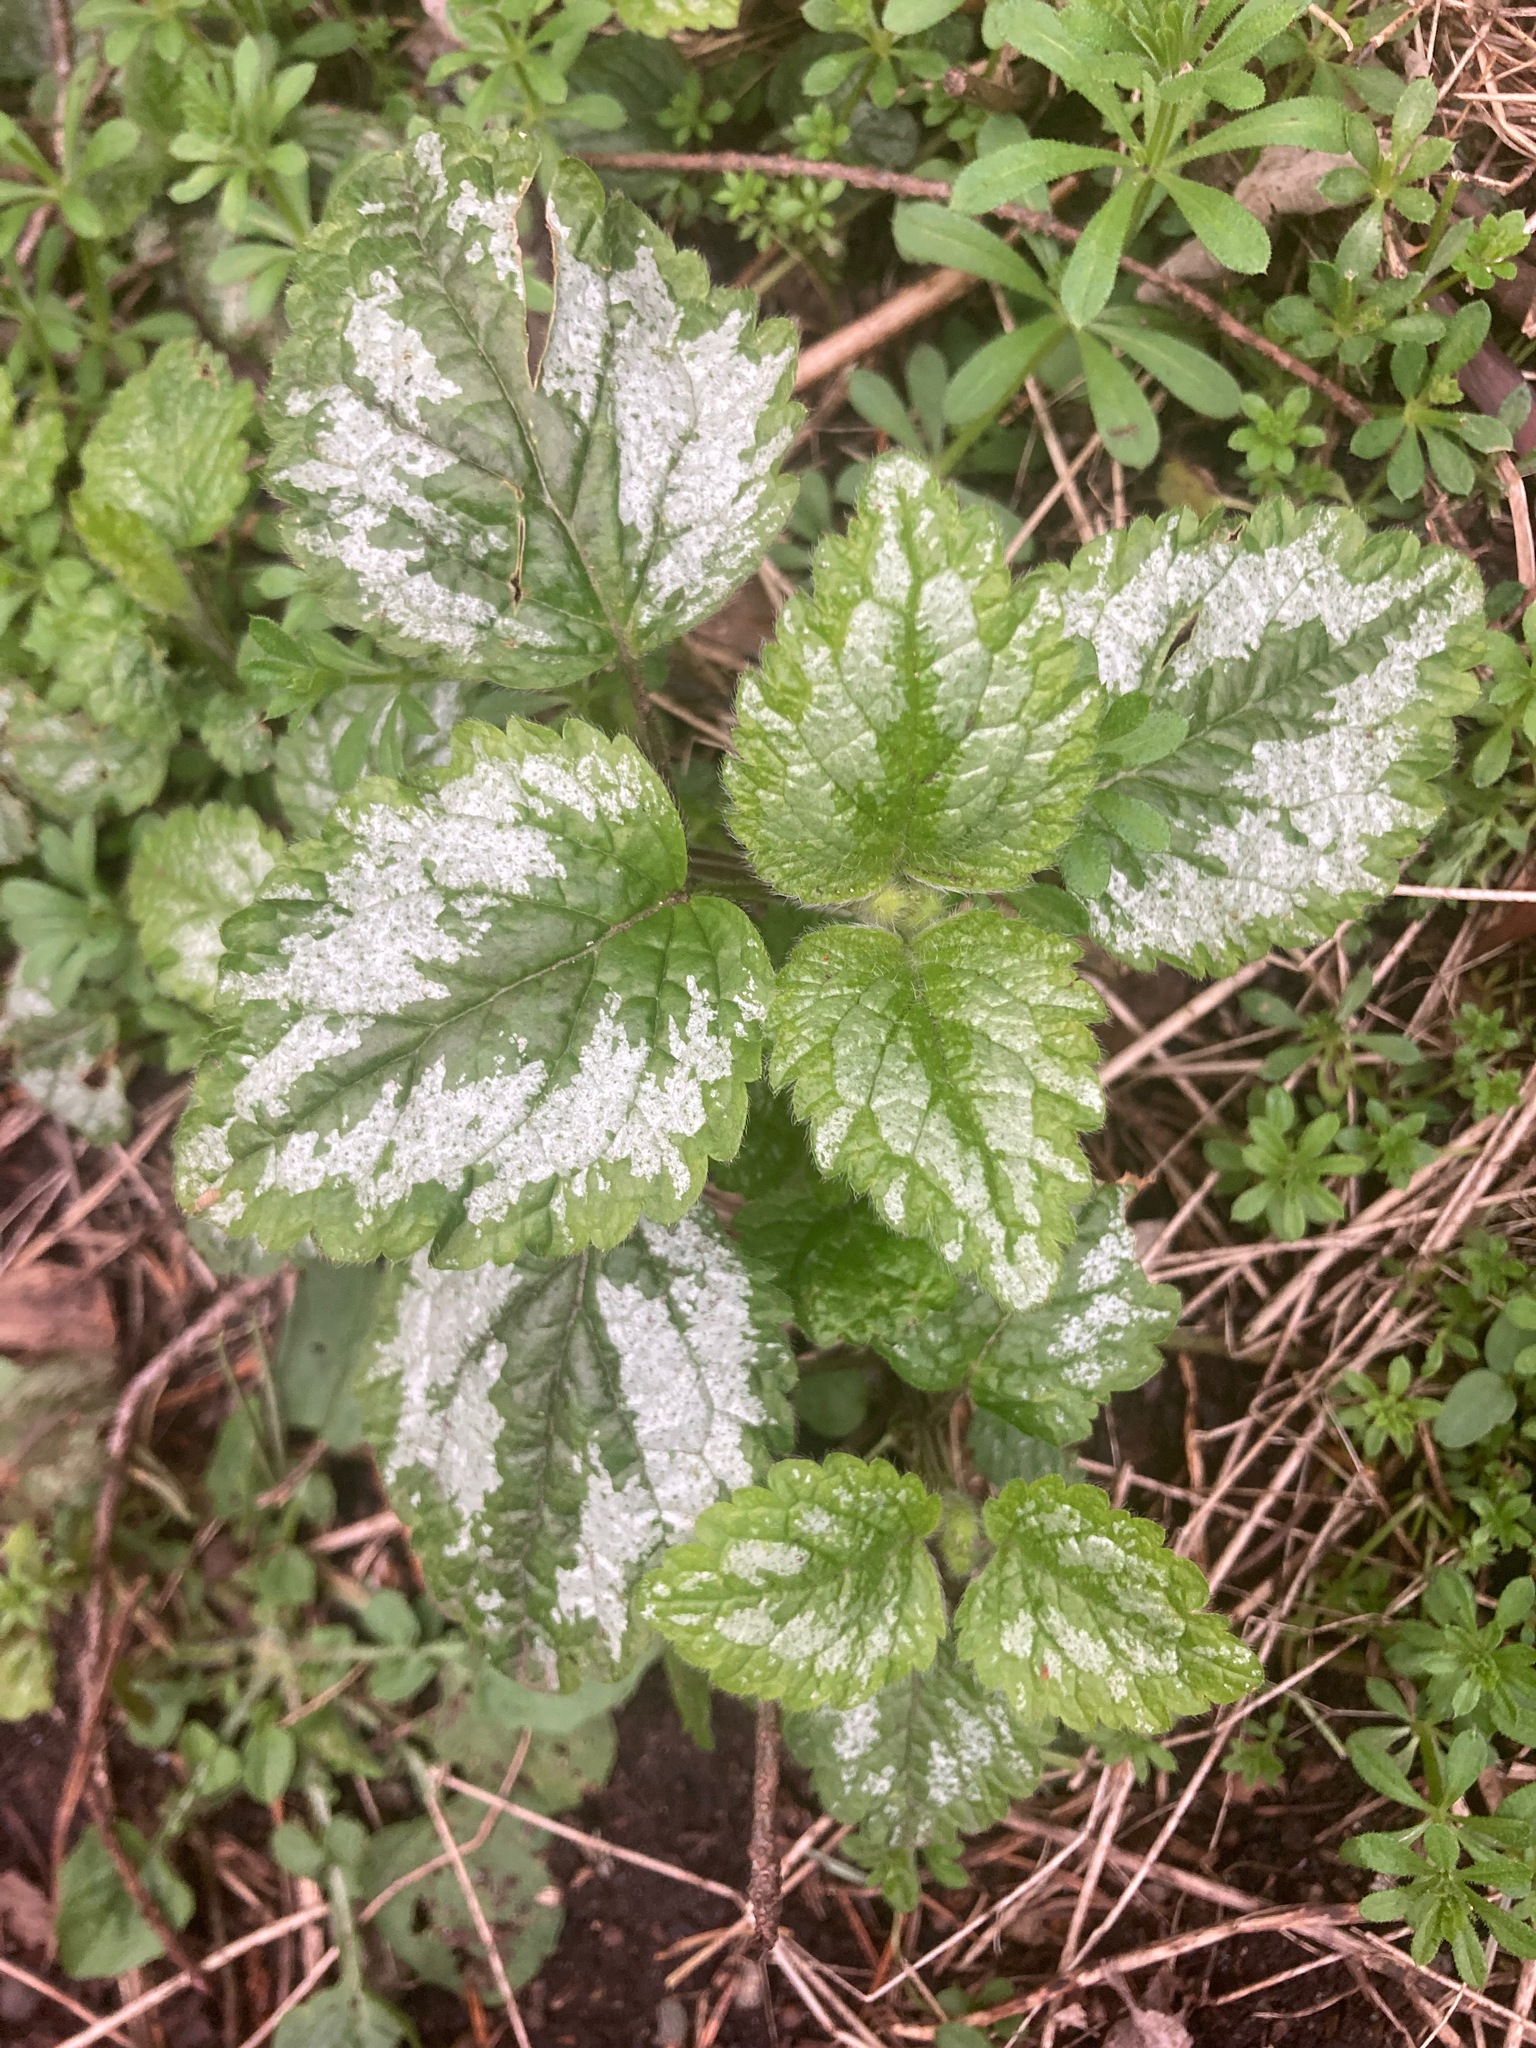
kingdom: Plantae
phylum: Tracheophyta
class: Magnoliopsida
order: Lamiales
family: Lamiaceae
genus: Lamium
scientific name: Lamium galeobdolon
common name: Yellow archangel
